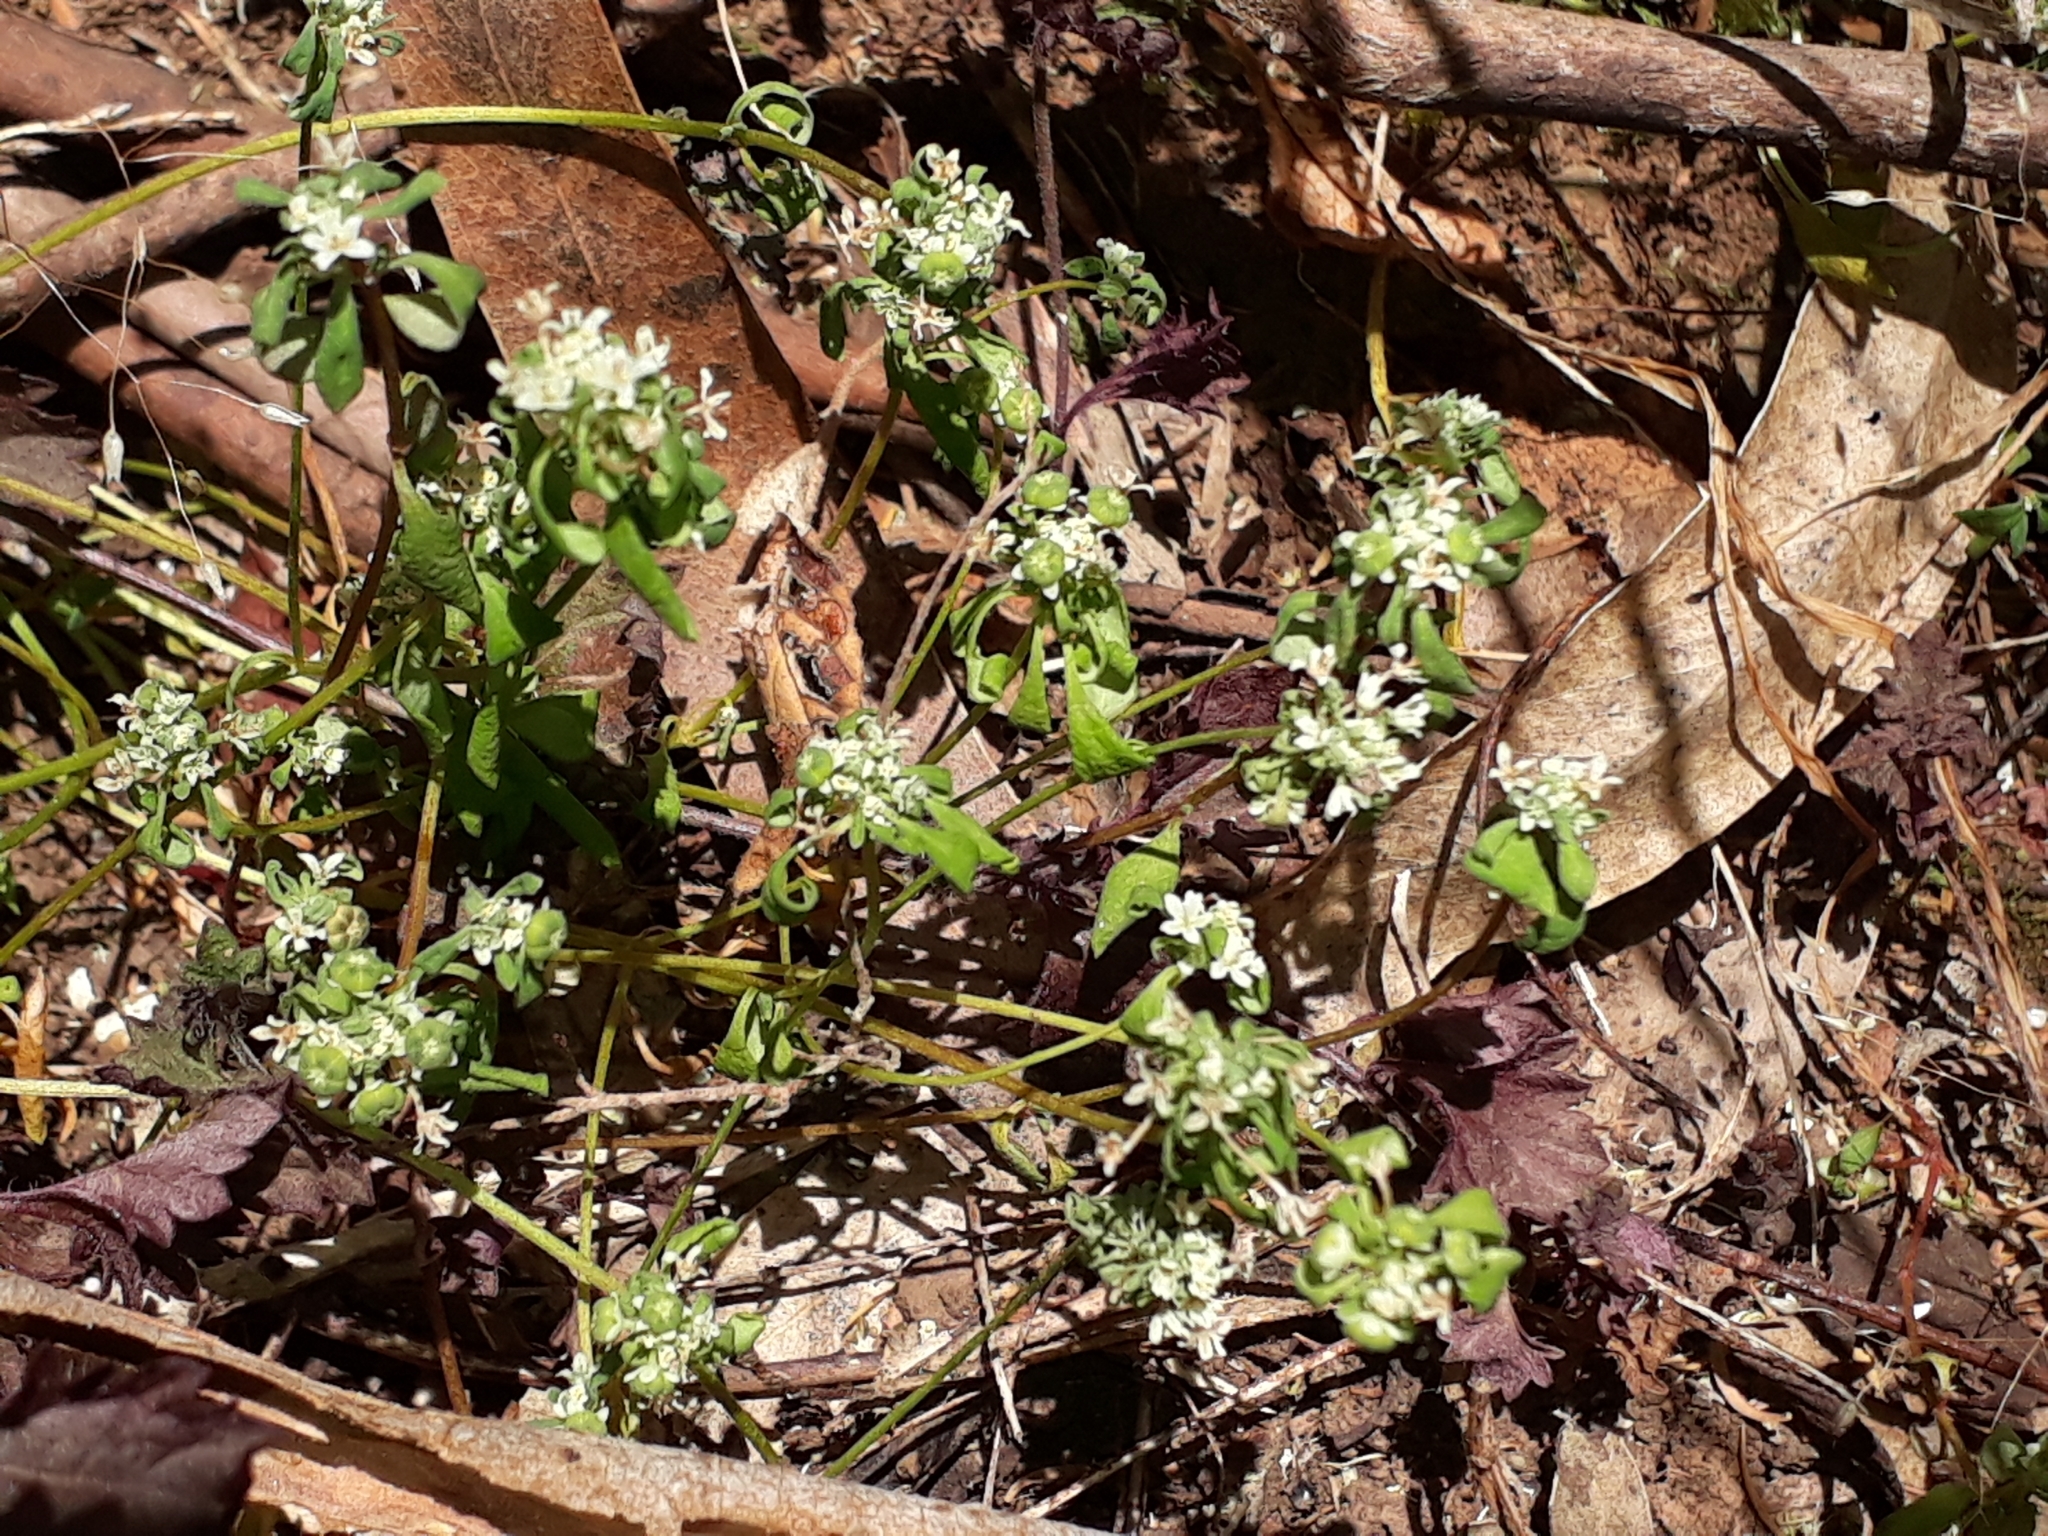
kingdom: Plantae
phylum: Tracheophyta
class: Magnoliopsida
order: Malpighiales
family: Phyllanthaceae
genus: Poranthera
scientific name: Poranthera microphylla
